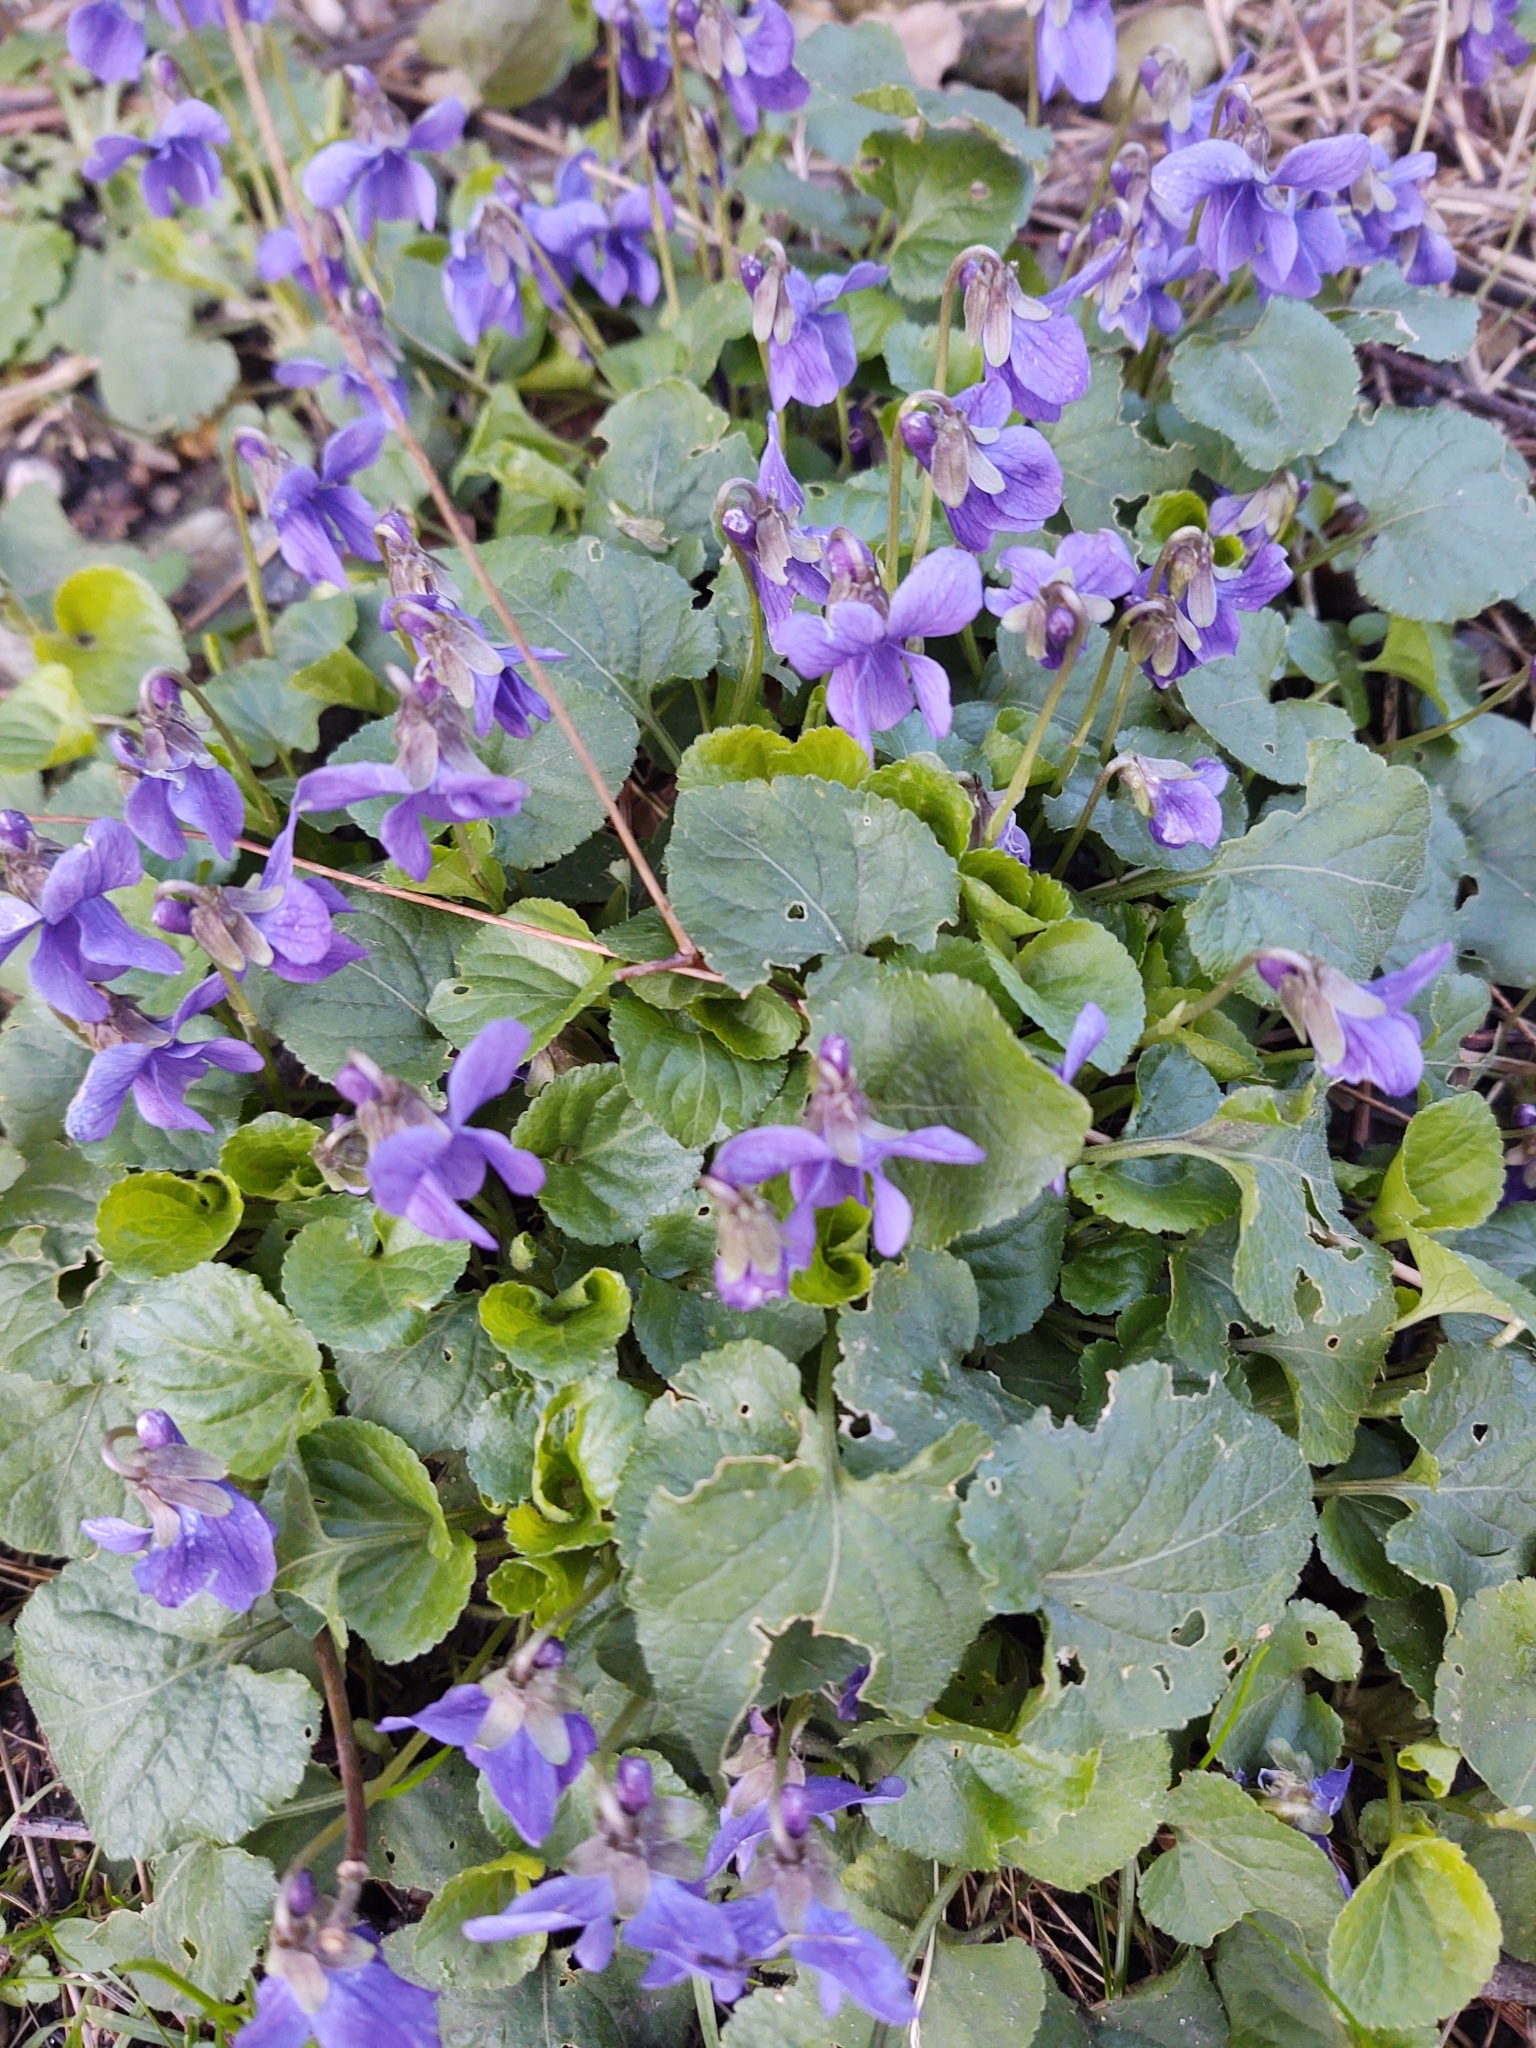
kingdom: Plantae
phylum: Tracheophyta
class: Magnoliopsida
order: Malpighiales
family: Violaceae
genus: Viola
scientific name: Viola odorata
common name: Sweet violet
